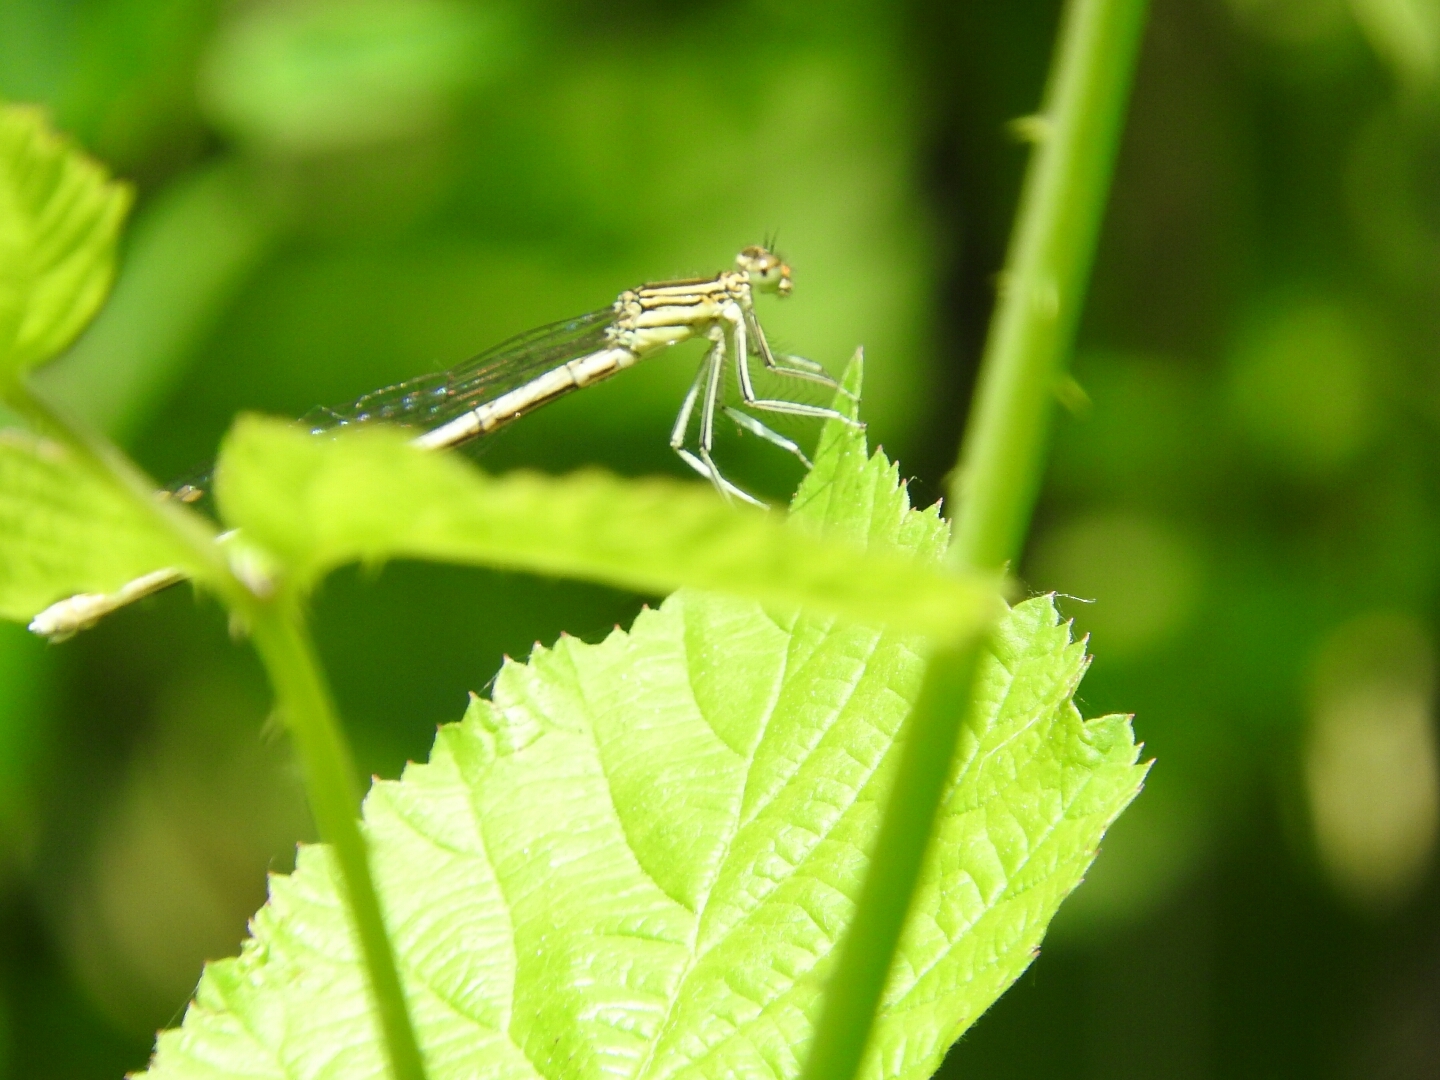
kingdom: Animalia
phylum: Arthropoda
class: Insecta
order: Odonata
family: Platycnemididae
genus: Platycnemis
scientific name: Platycnemis pennipes
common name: White-legged damselfly
